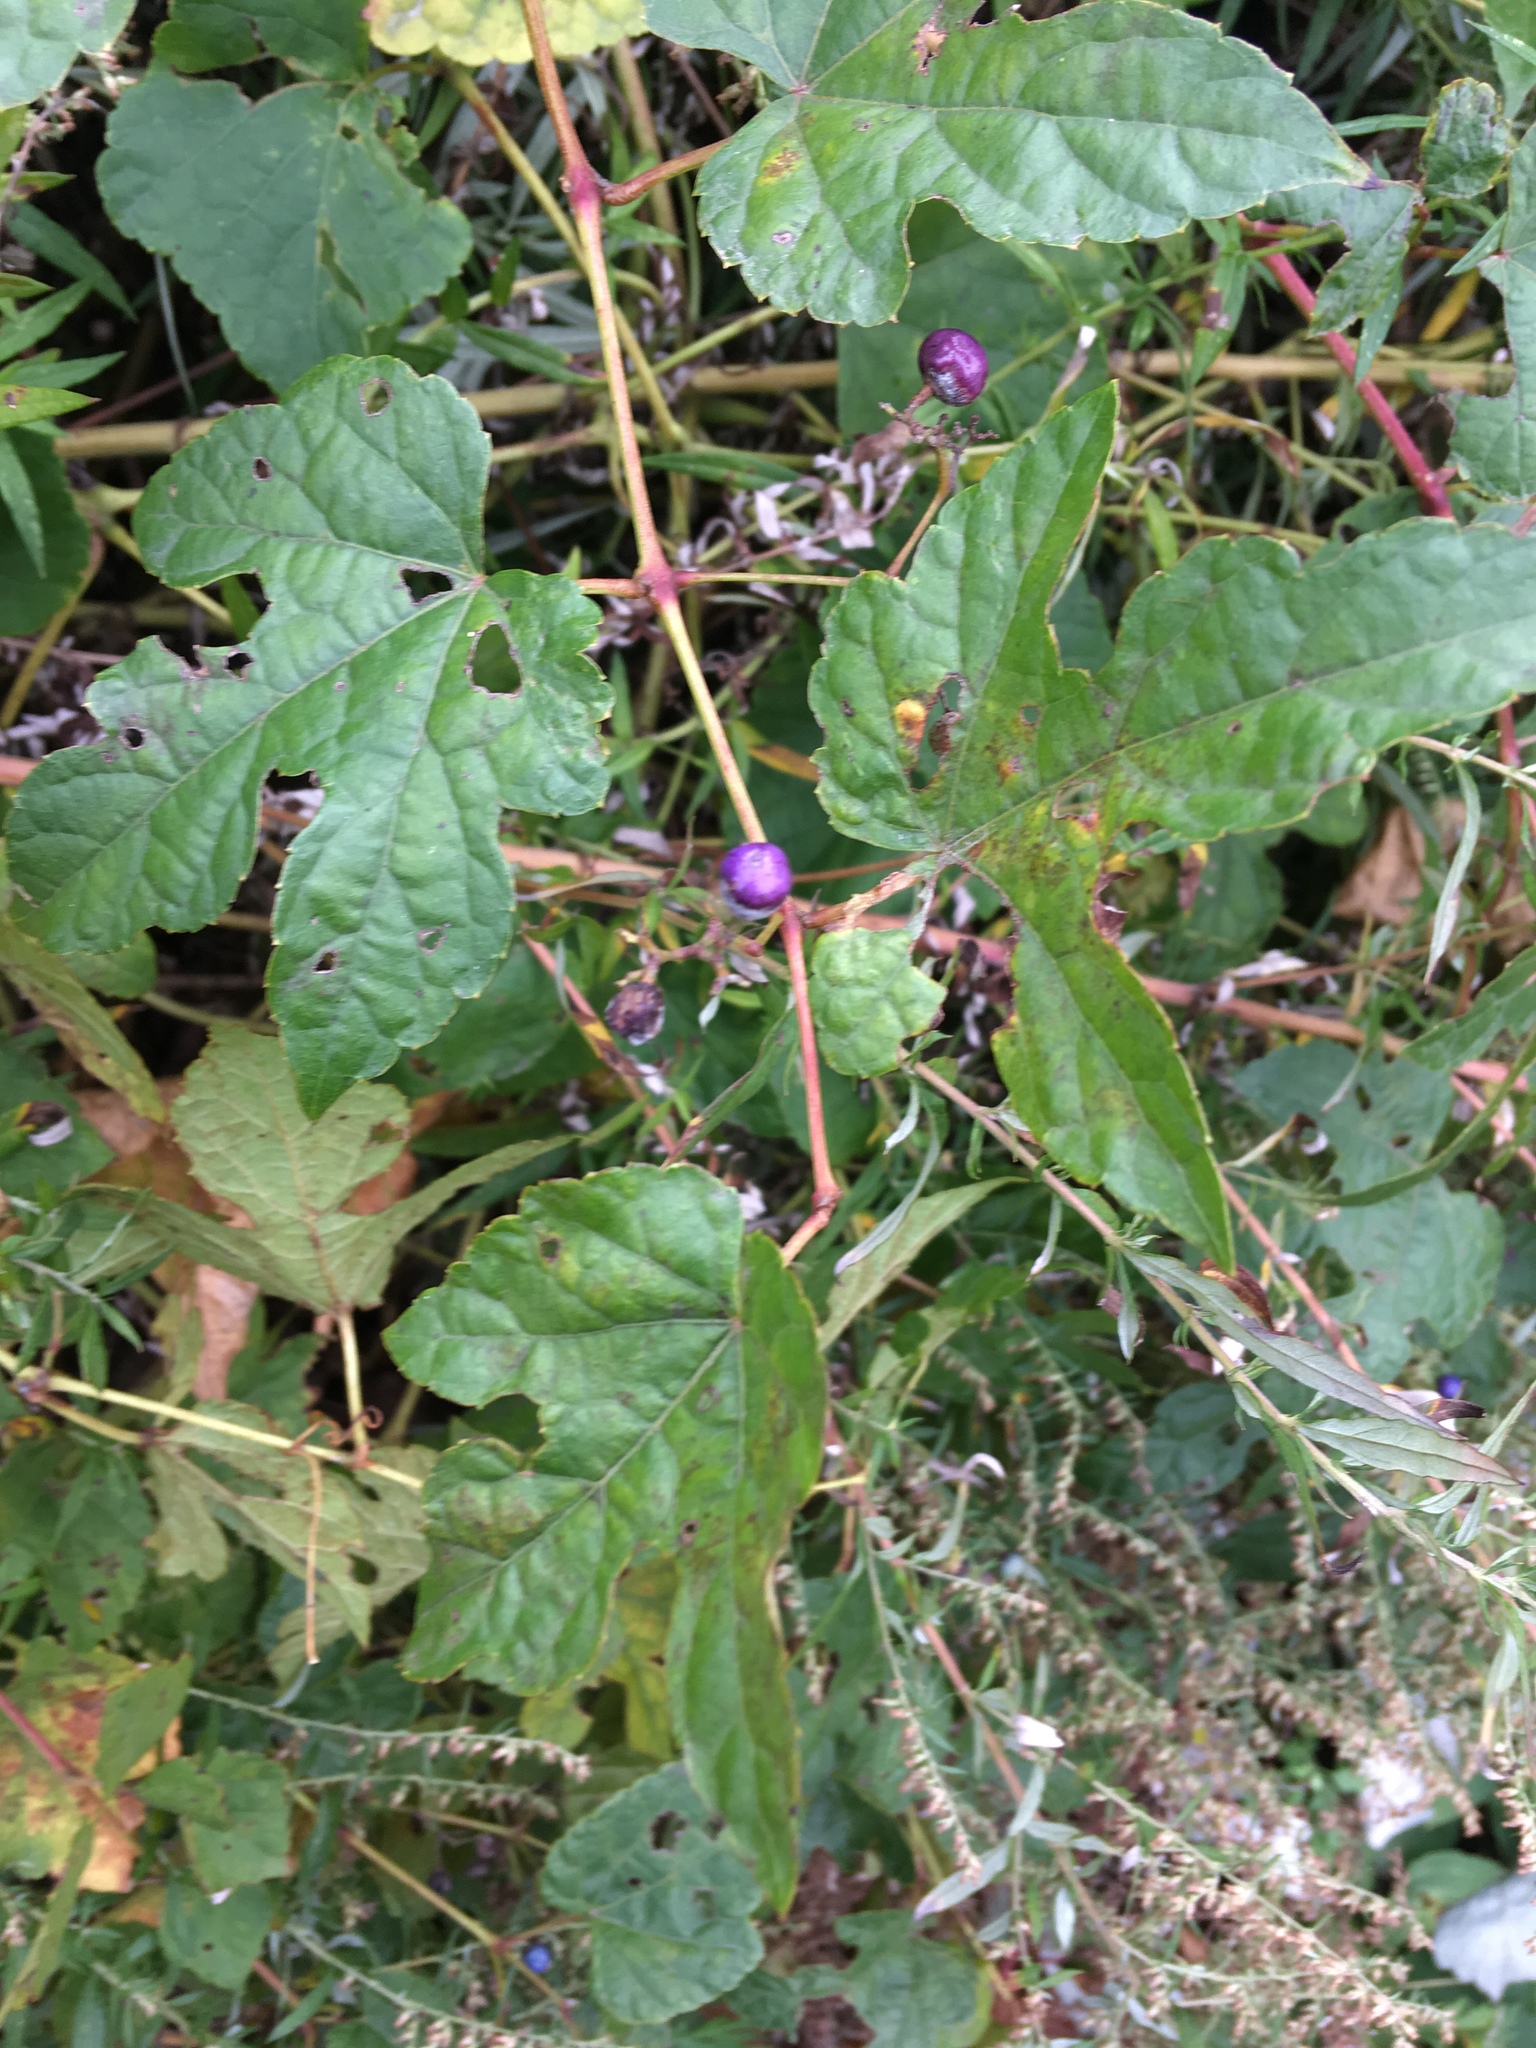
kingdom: Plantae
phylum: Tracheophyta
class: Magnoliopsida
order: Vitales
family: Vitaceae
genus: Ampelopsis
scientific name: Ampelopsis glandulosa
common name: Amur peppervine
